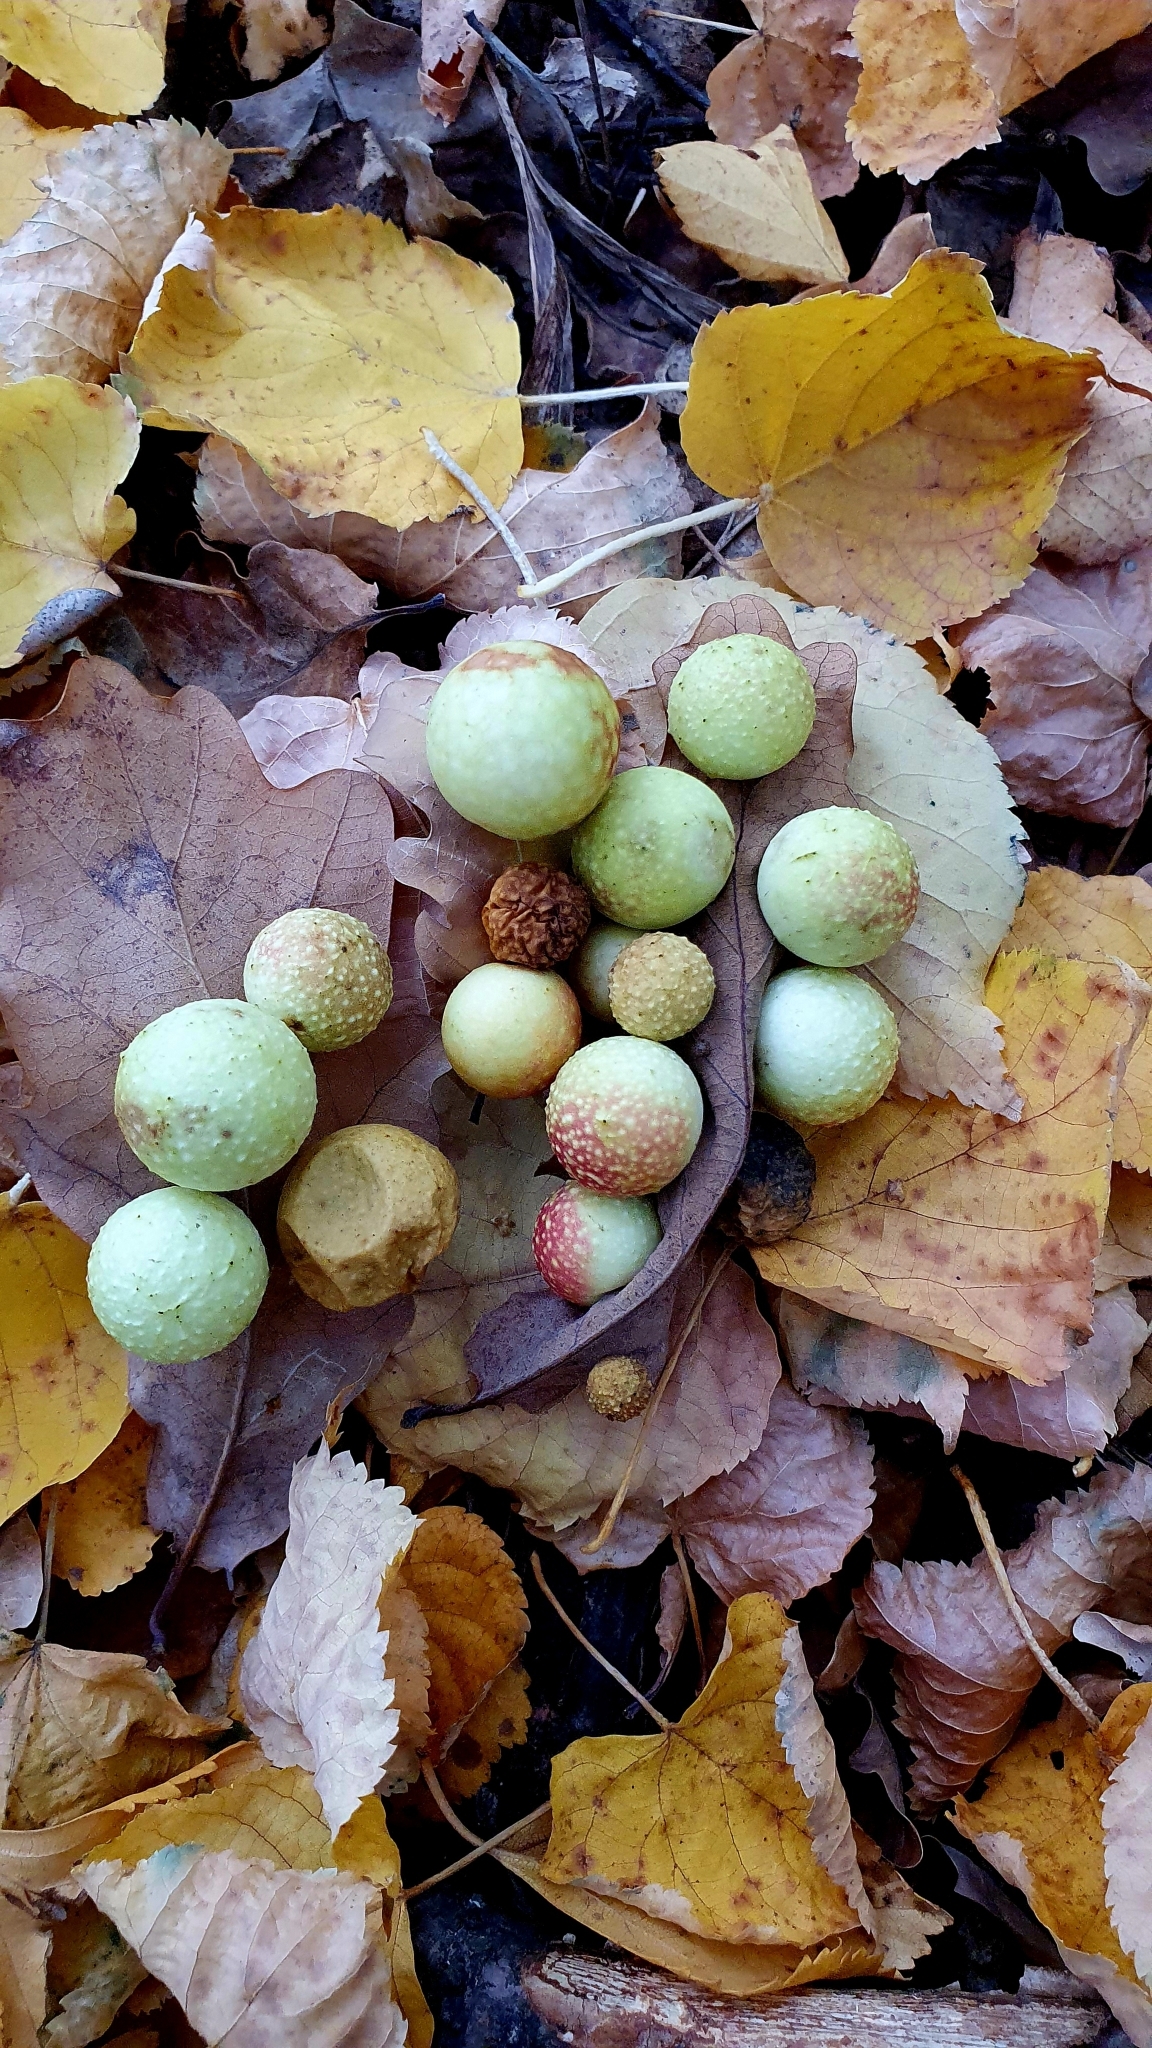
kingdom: Animalia
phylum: Arthropoda
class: Insecta
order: Hymenoptera
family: Cynipidae
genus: Cynips
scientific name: Cynips quercusfolii
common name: Cherry gall
